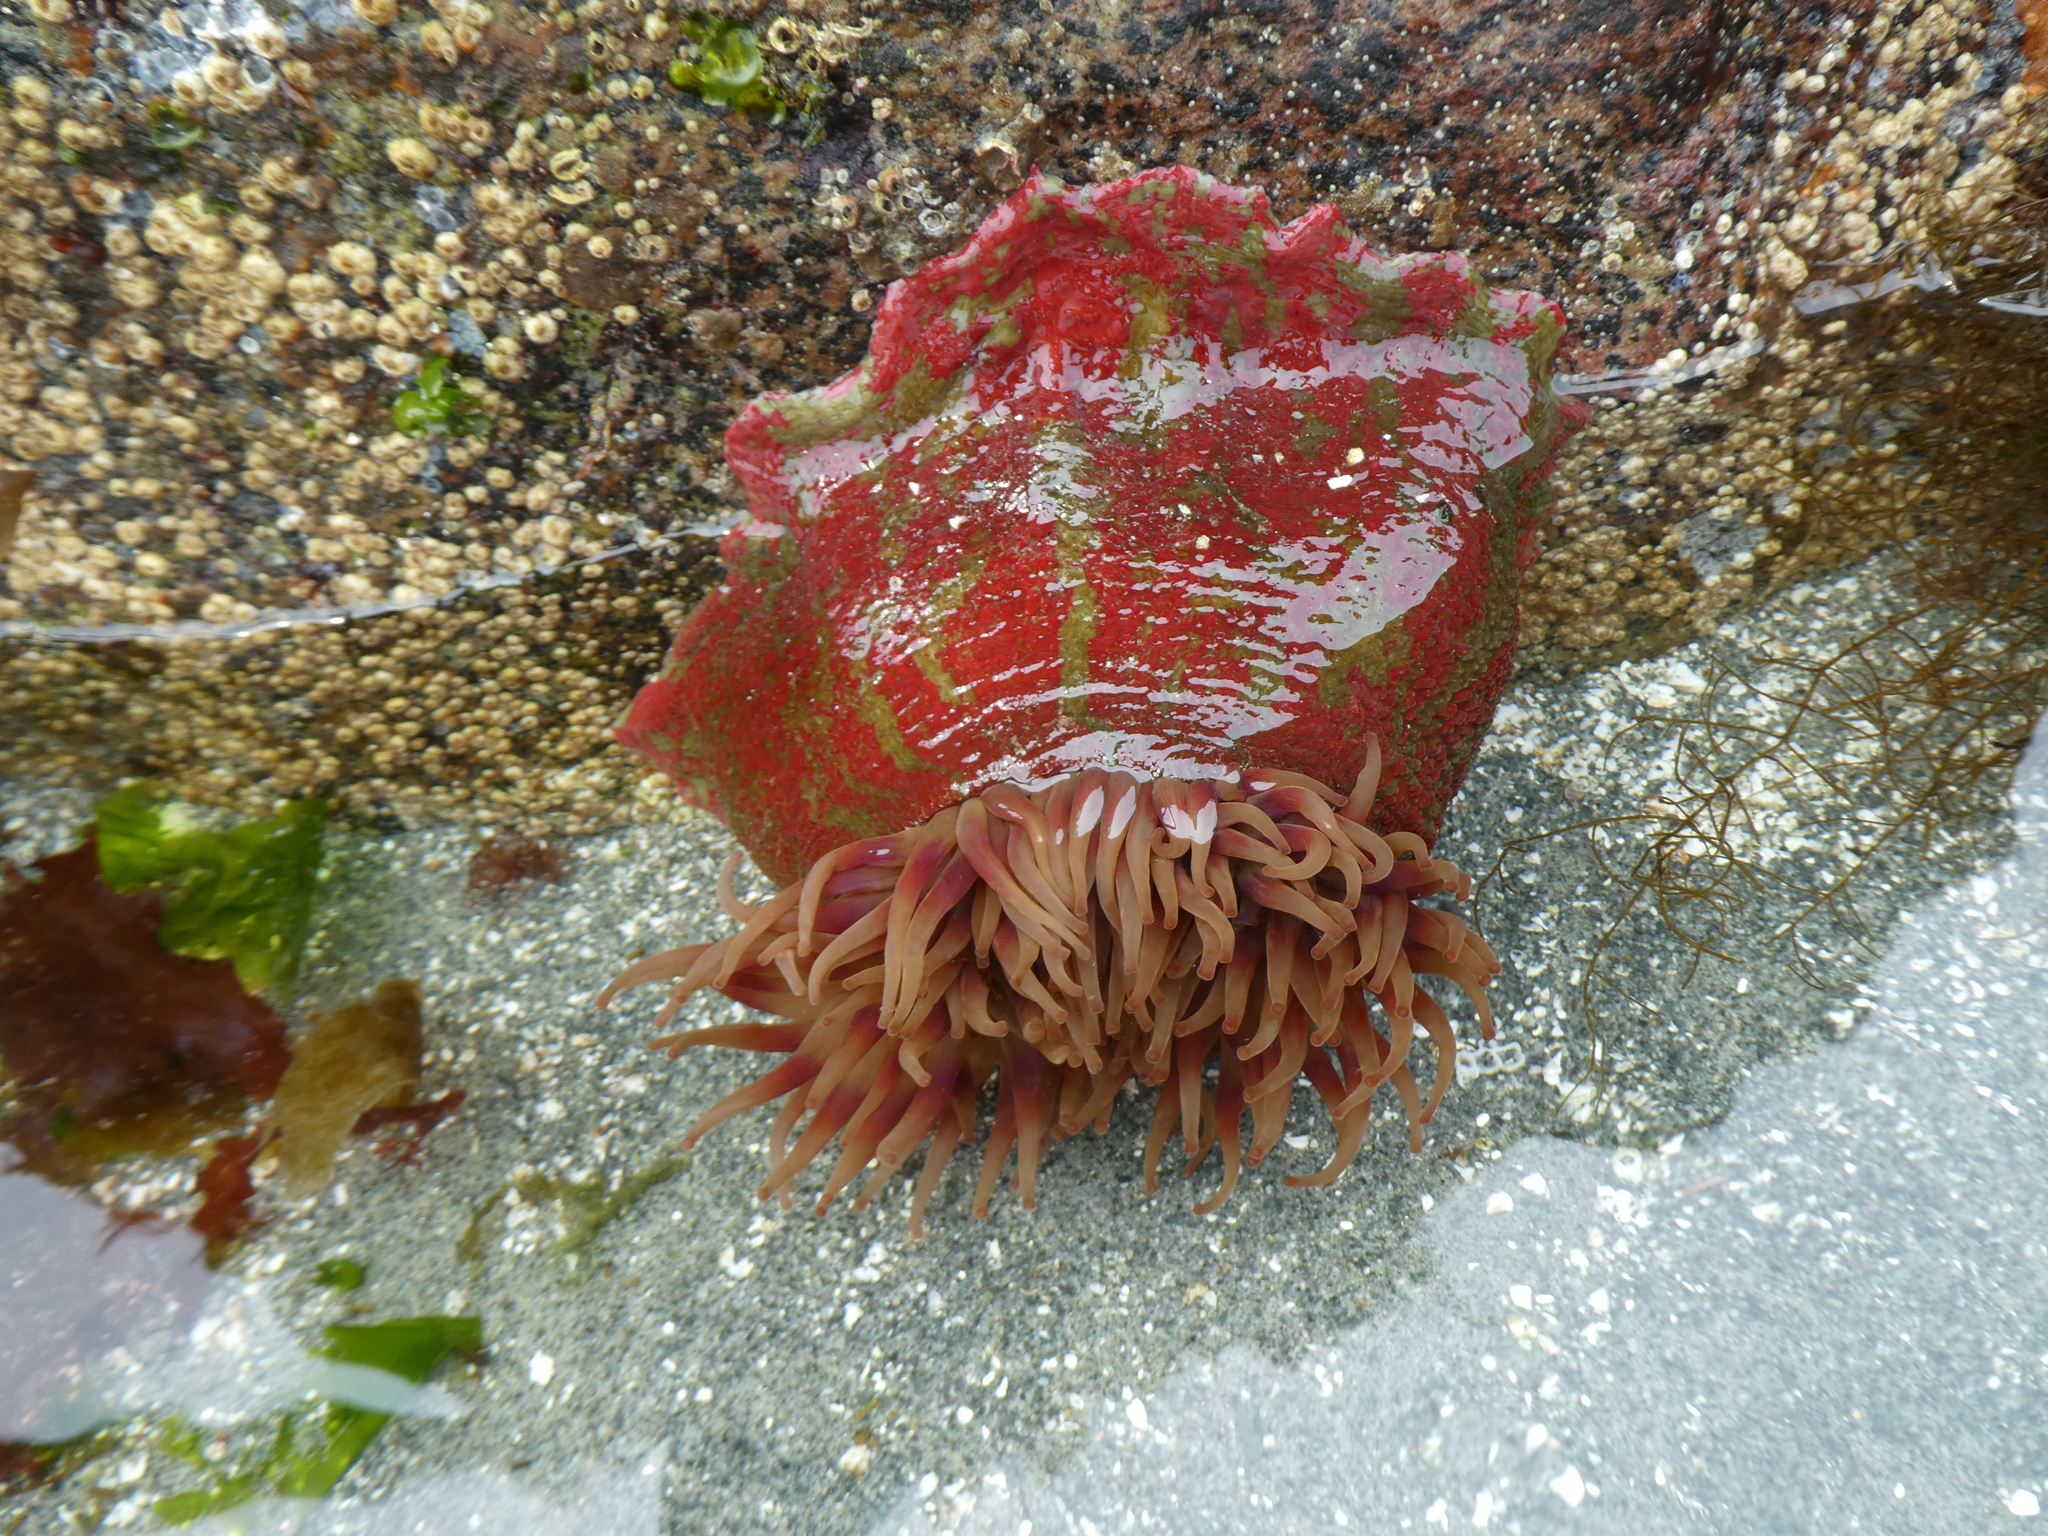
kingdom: Animalia
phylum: Cnidaria
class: Anthozoa
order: Actiniaria
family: Actiniidae
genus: Urticina
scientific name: Urticina grebelnyi
